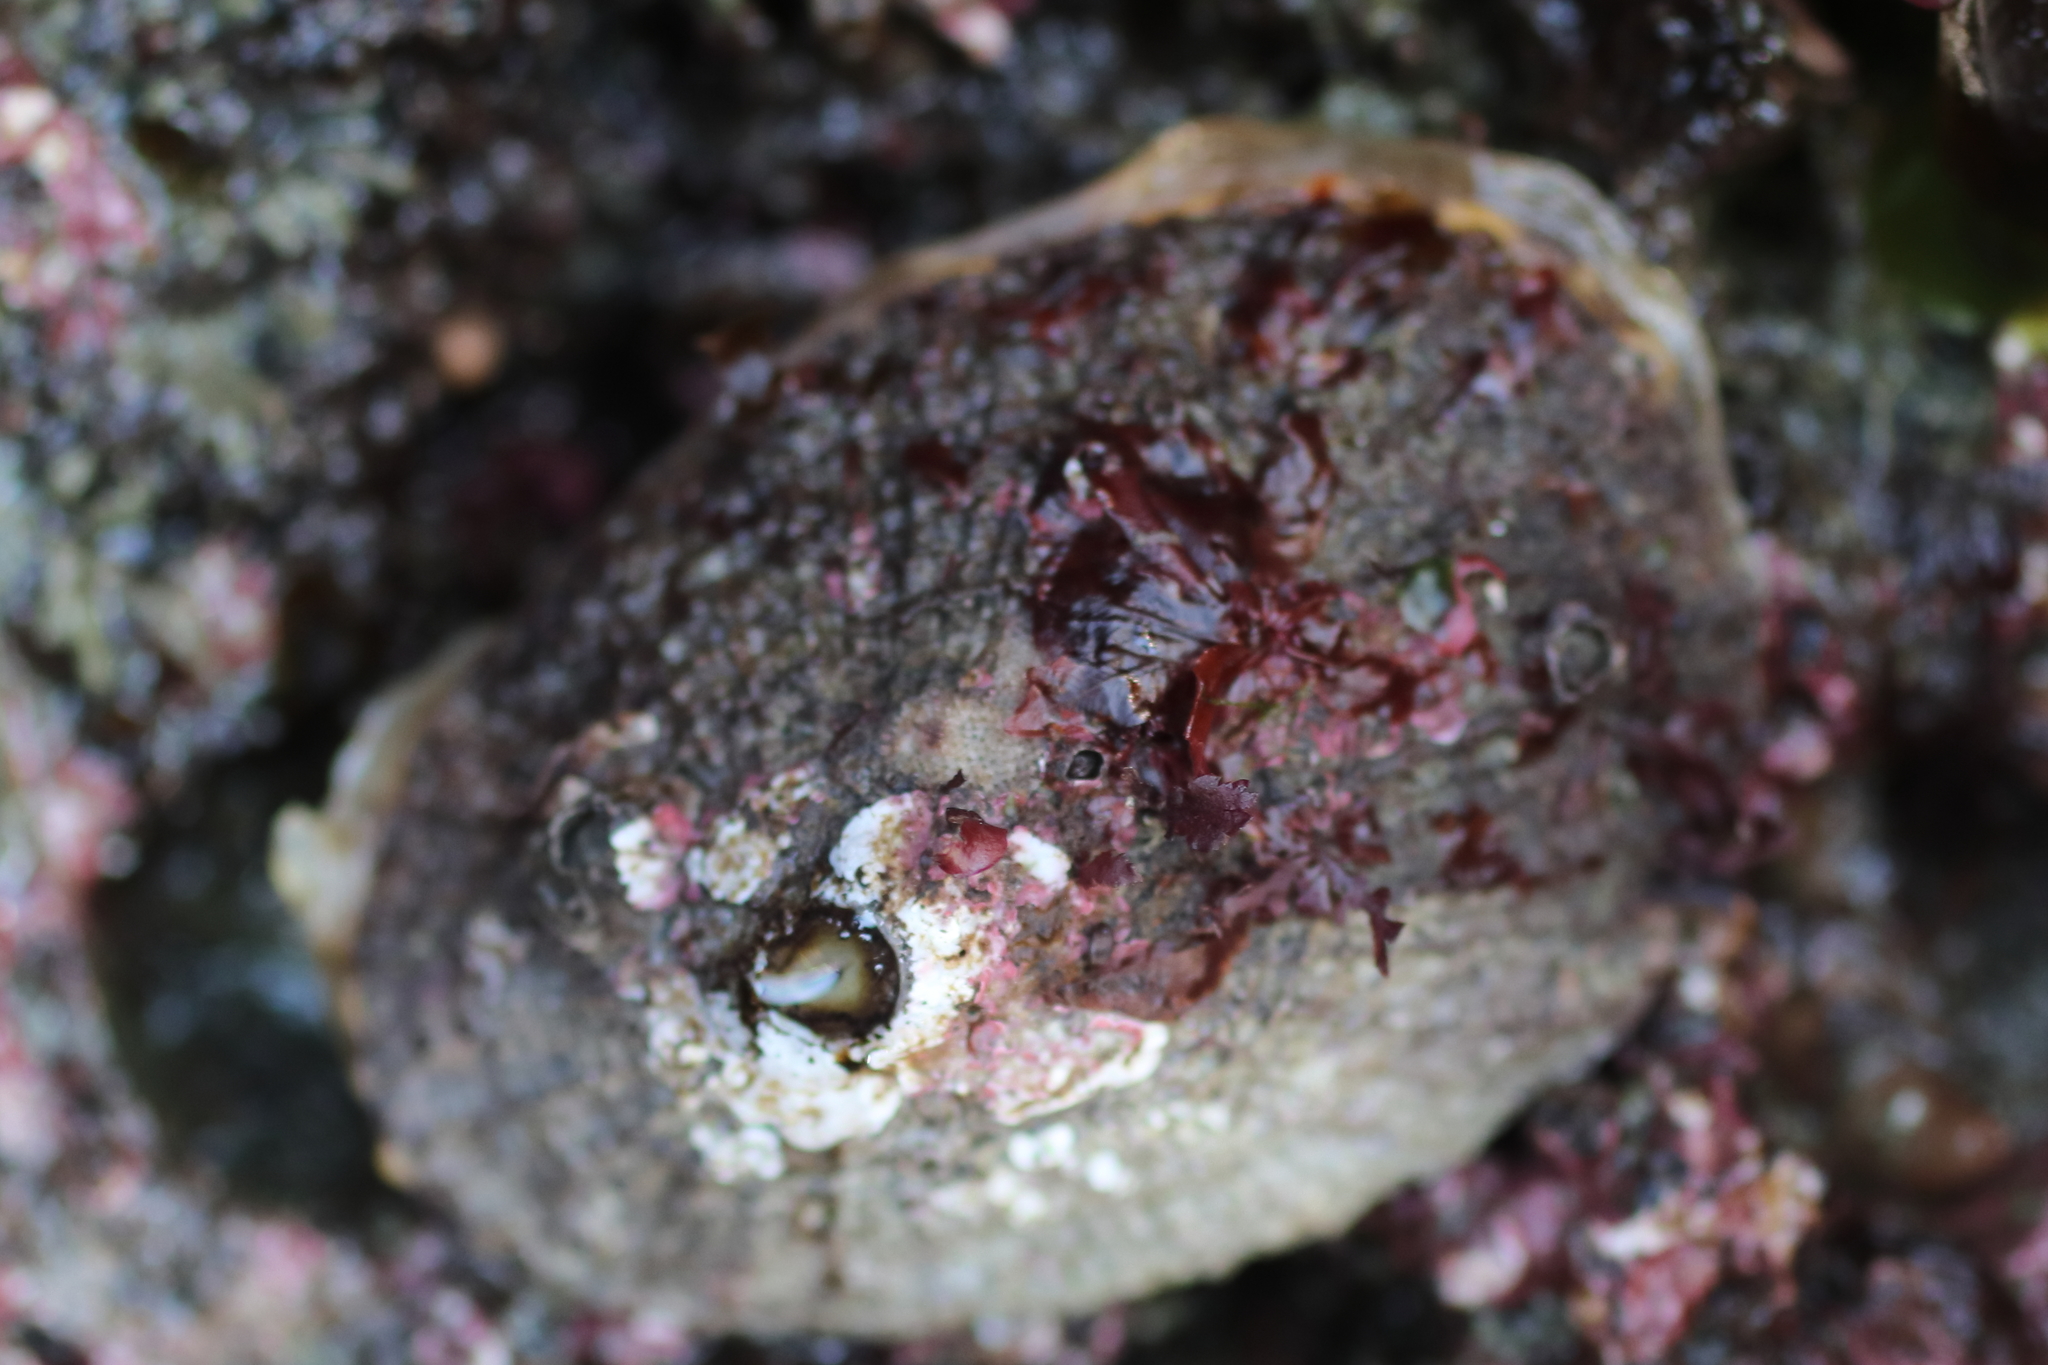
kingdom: Animalia
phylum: Mollusca
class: Gastropoda
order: Lepetellida
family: Fissurellidae
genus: Diodora
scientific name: Diodora aspera
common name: Rough keyhole limpet
